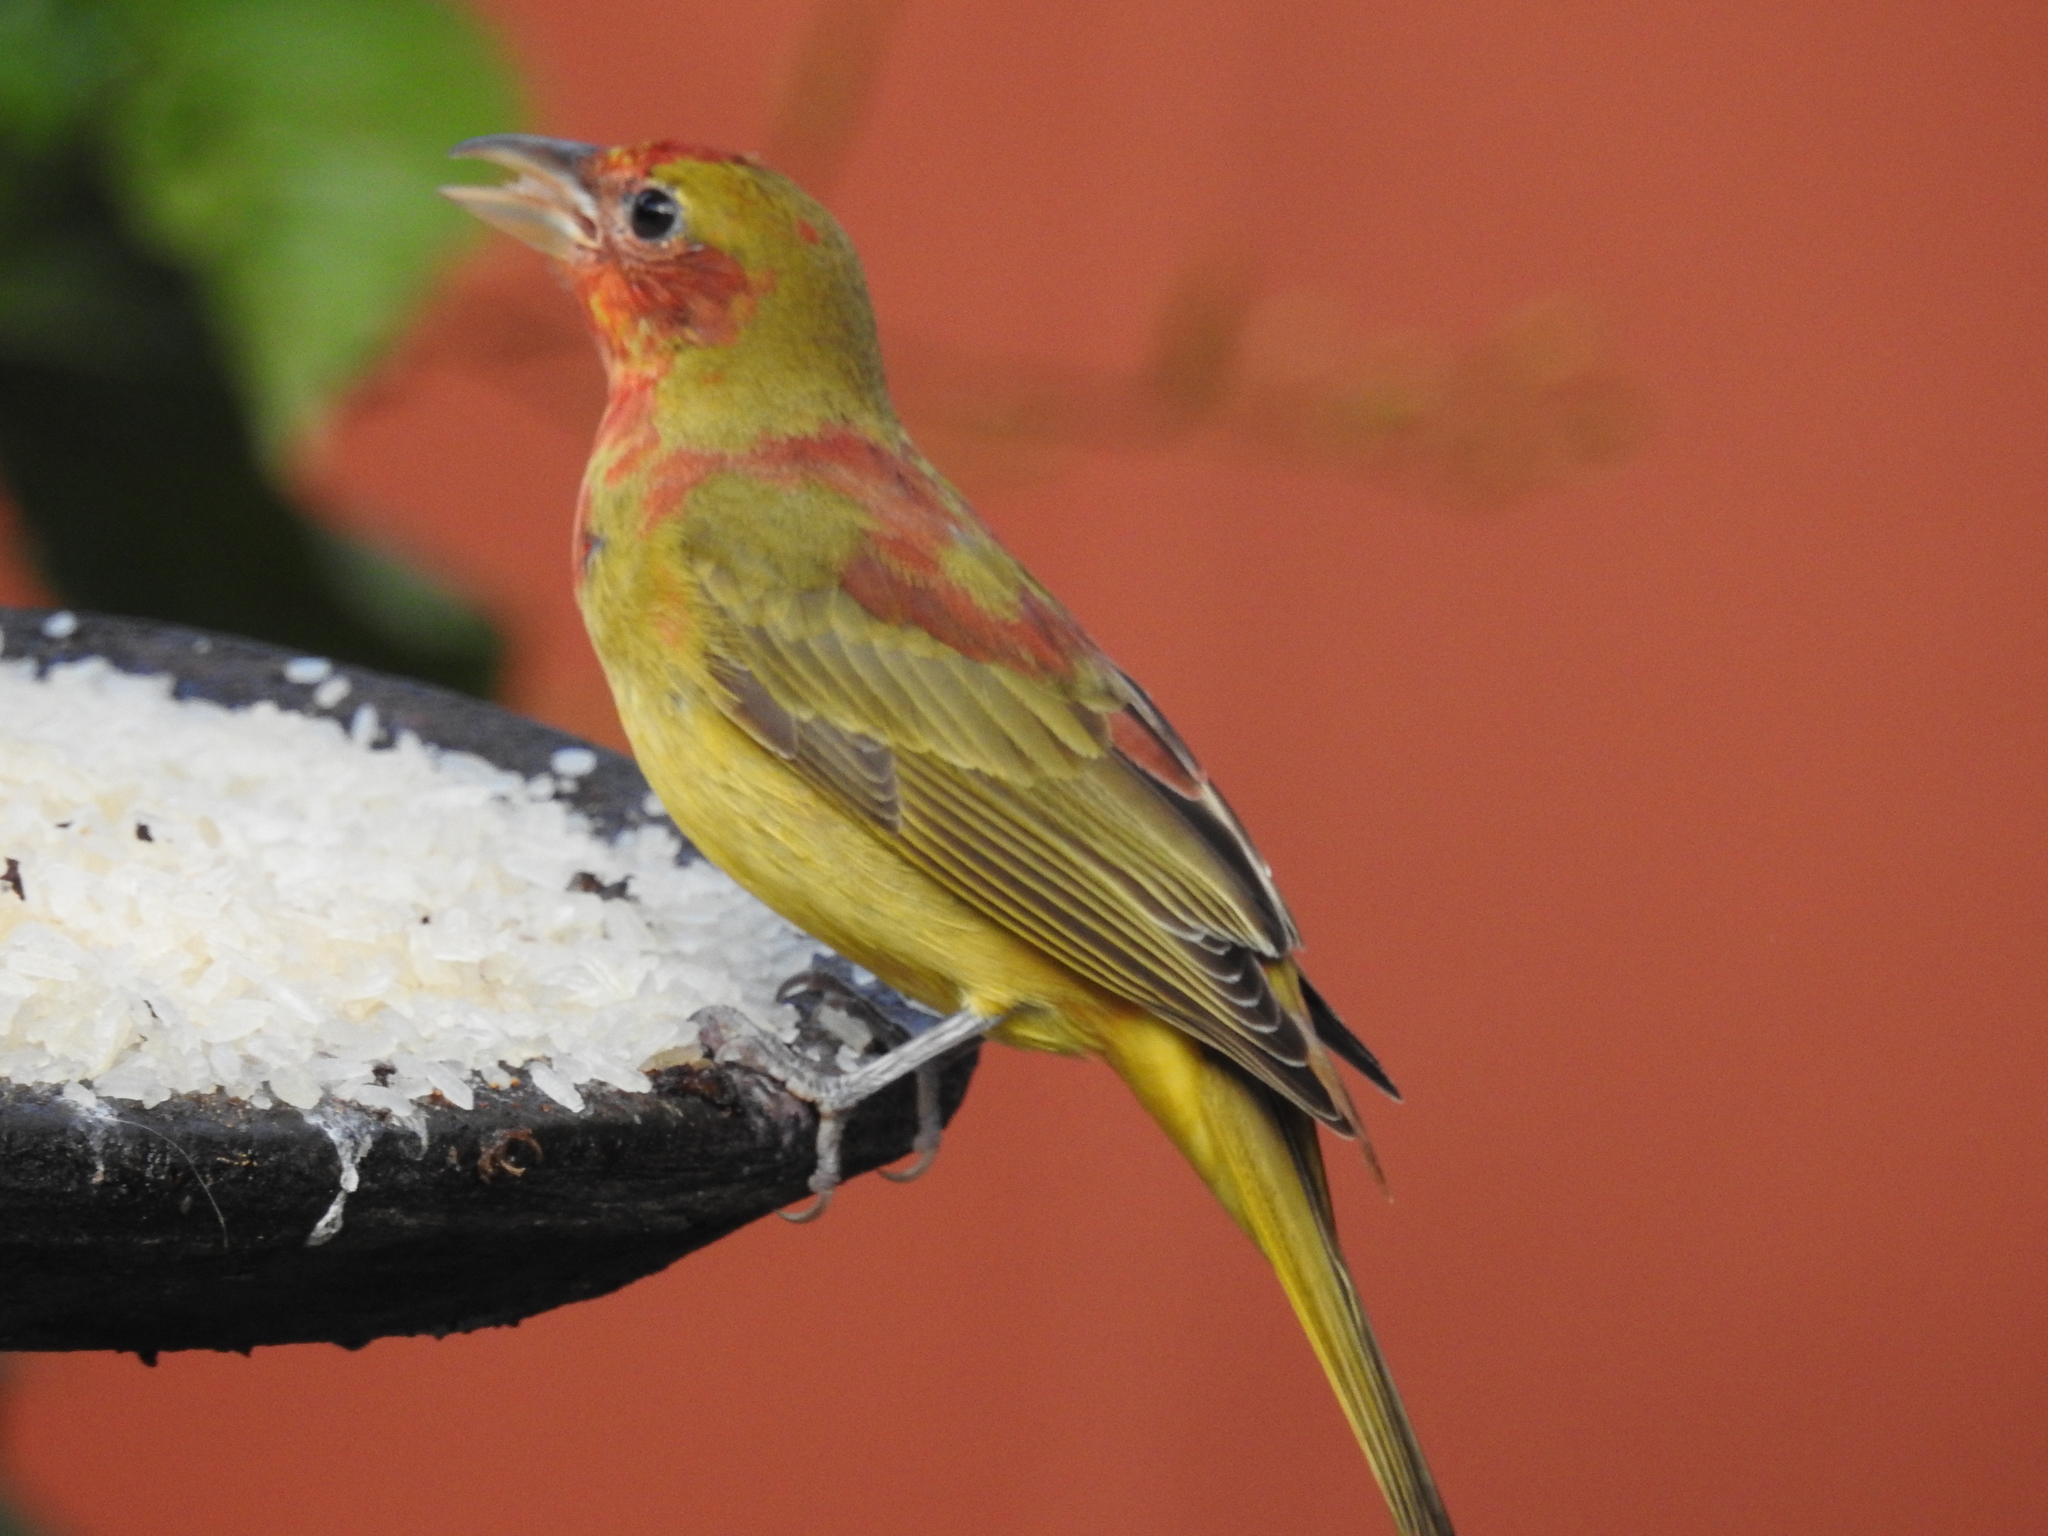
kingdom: Animalia
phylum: Chordata
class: Aves
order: Passeriformes
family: Cardinalidae
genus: Piranga
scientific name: Piranga rubra
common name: Summer tanager
